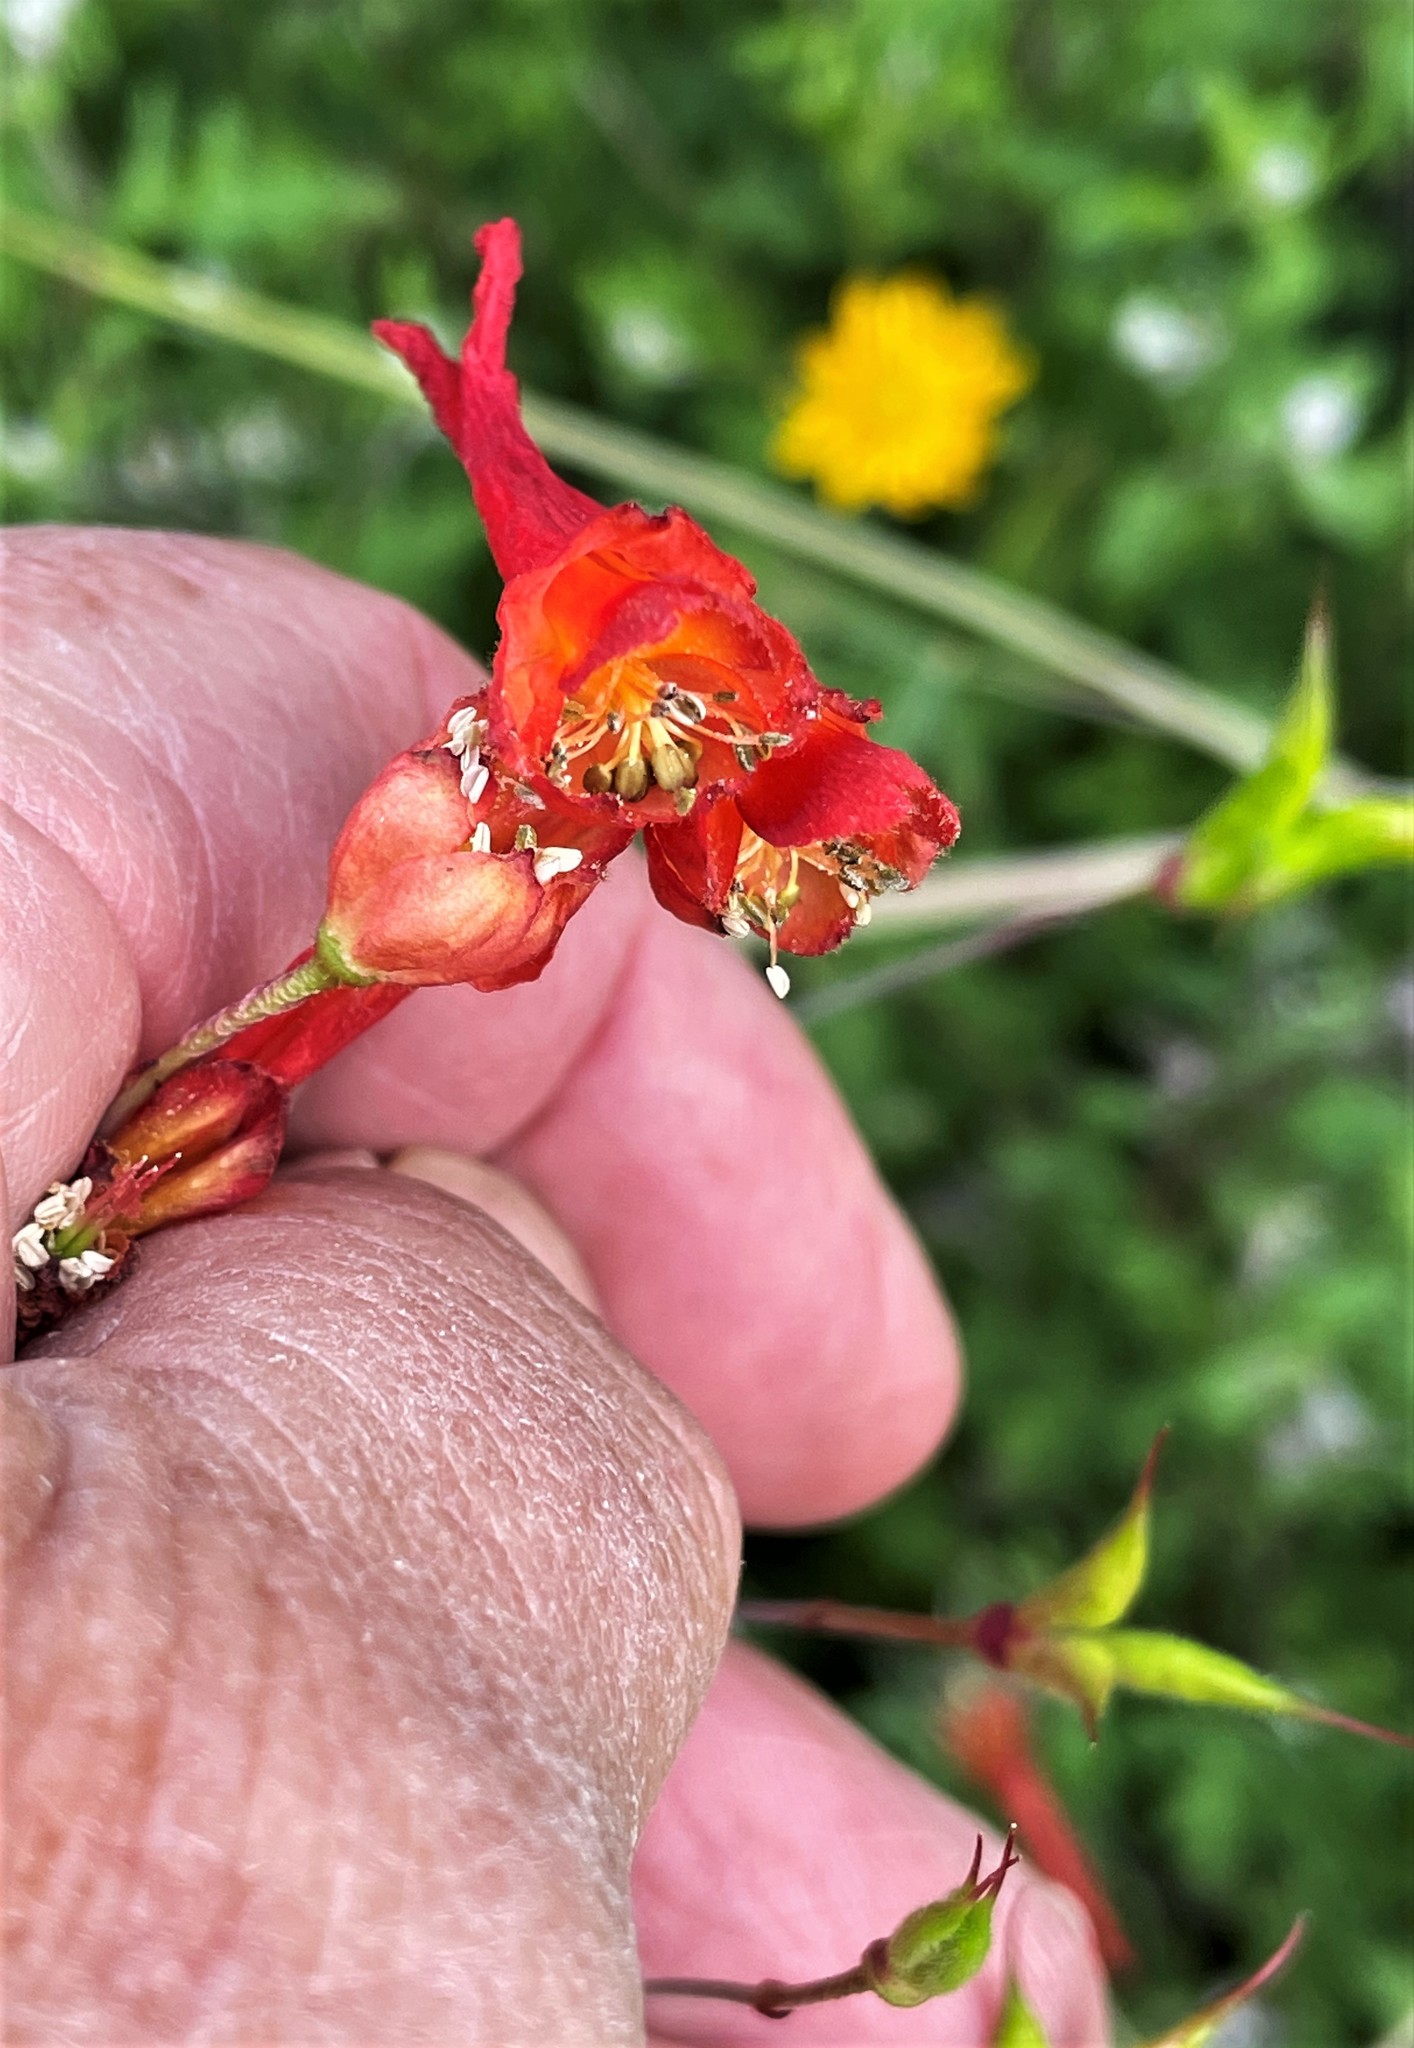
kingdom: Plantae
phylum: Tracheophyta
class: Magnoliopsida
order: Ranunculales
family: Ranunculaceae
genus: Delphinium
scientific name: Delphinium nudicaule
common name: Red larkspur
